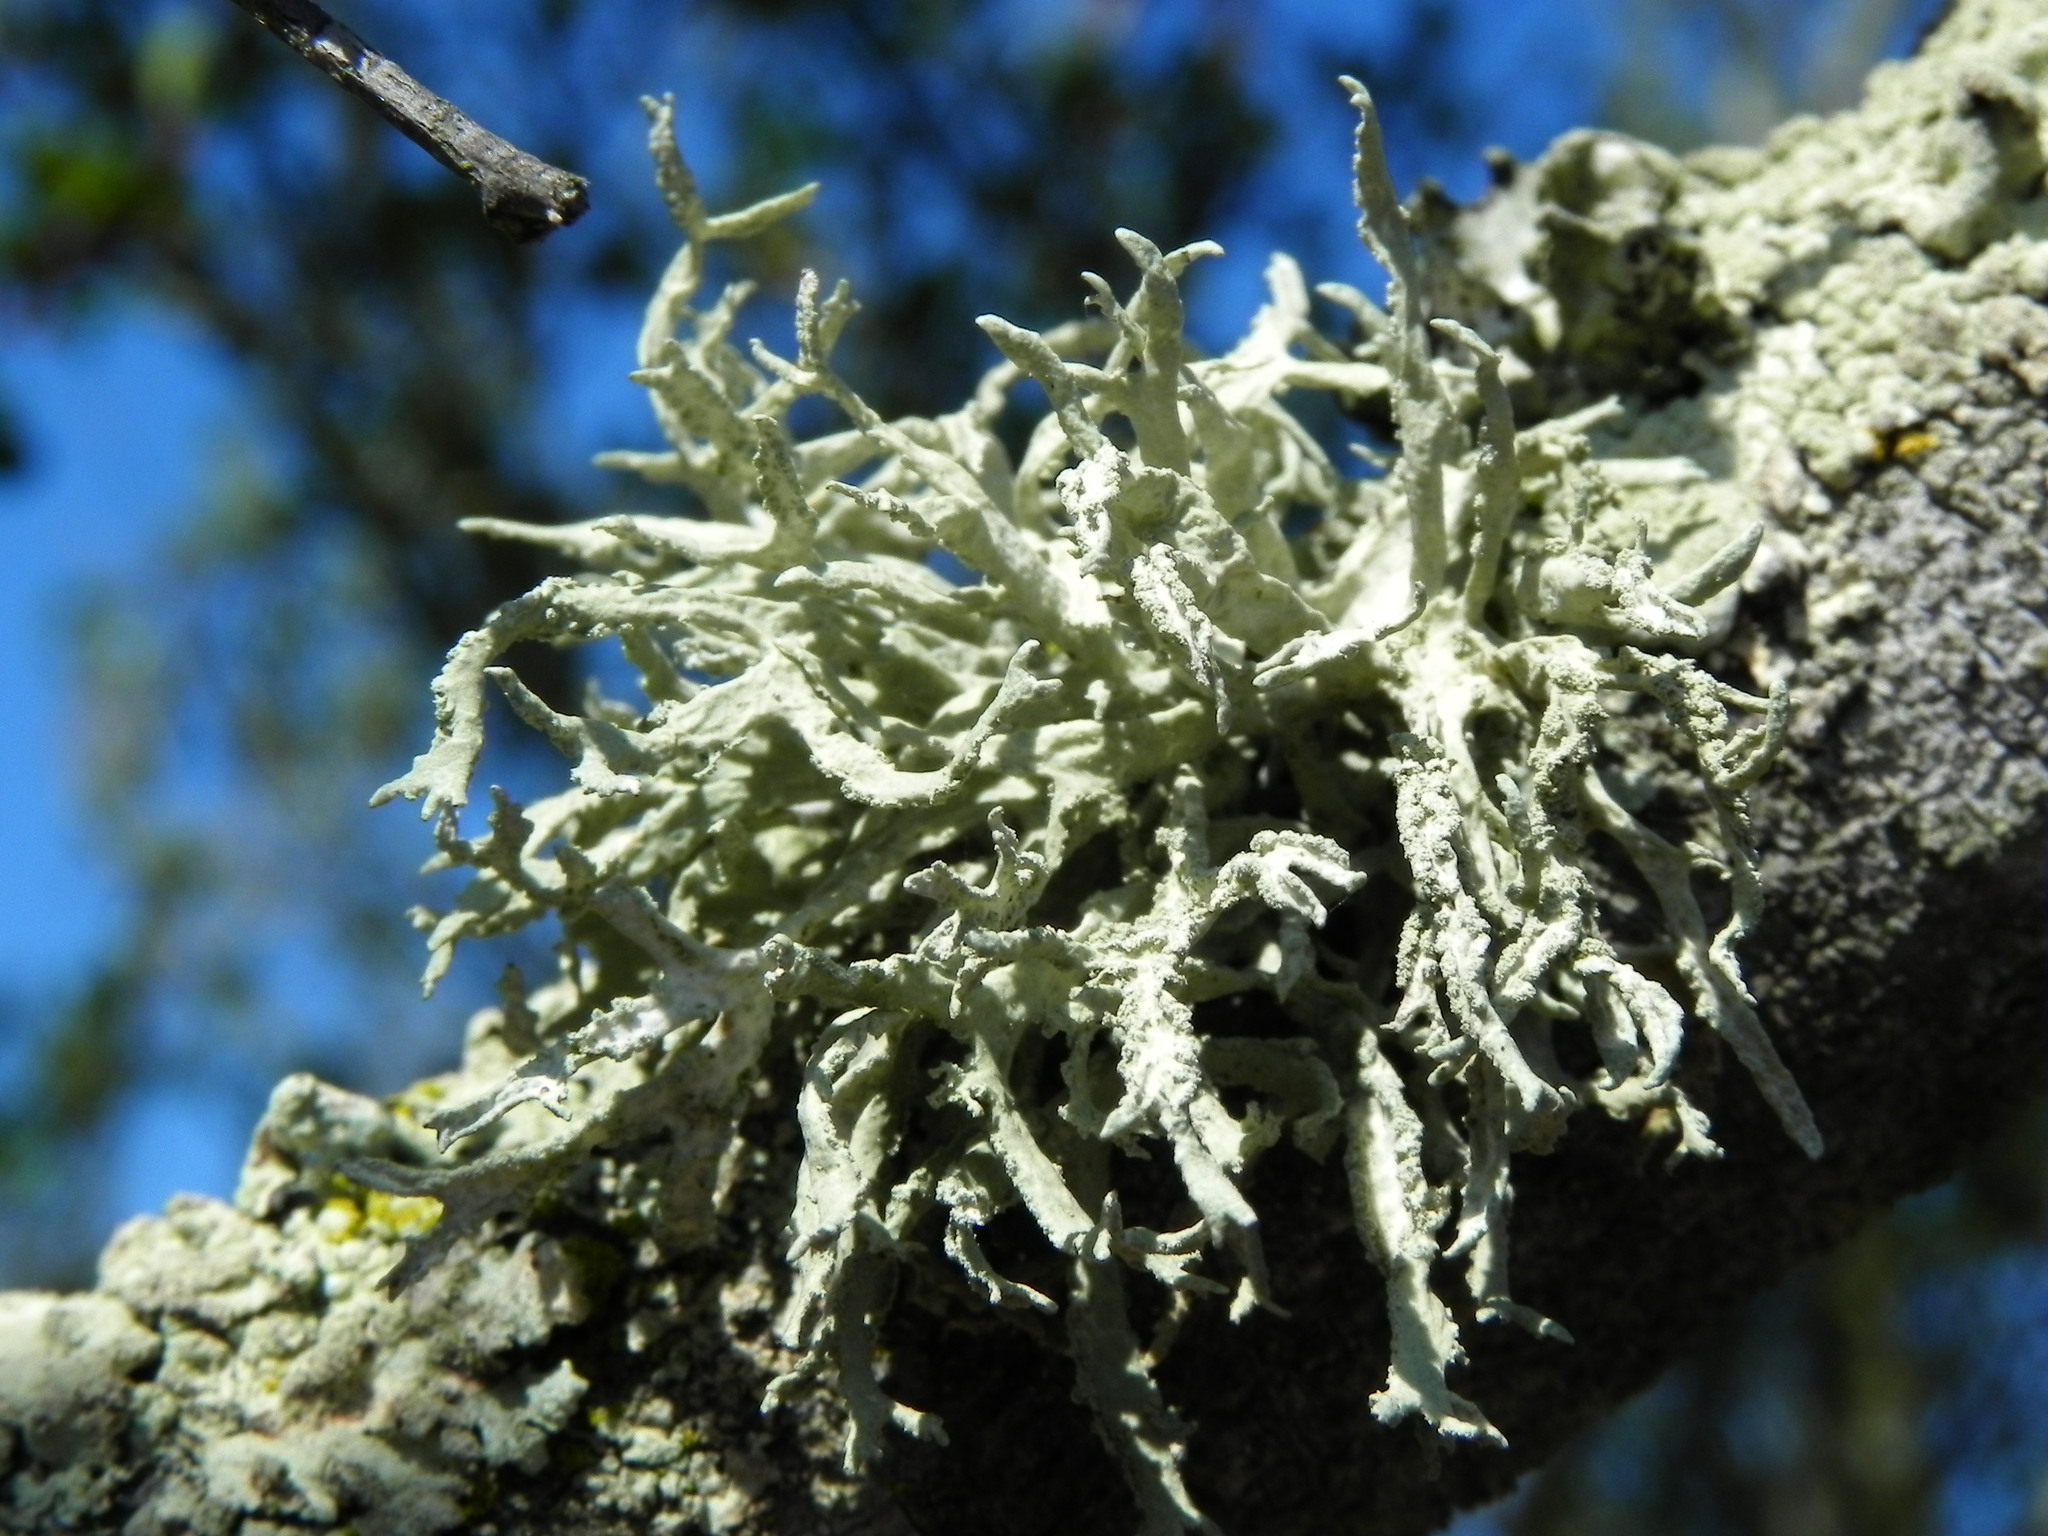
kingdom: Fungi
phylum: Ascomycota
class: Lecanoromycetes
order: Lecanorales
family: Ramalinaceae
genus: Ramalina
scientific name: Ramalina farinacea
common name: Farinose cartilage lichen
